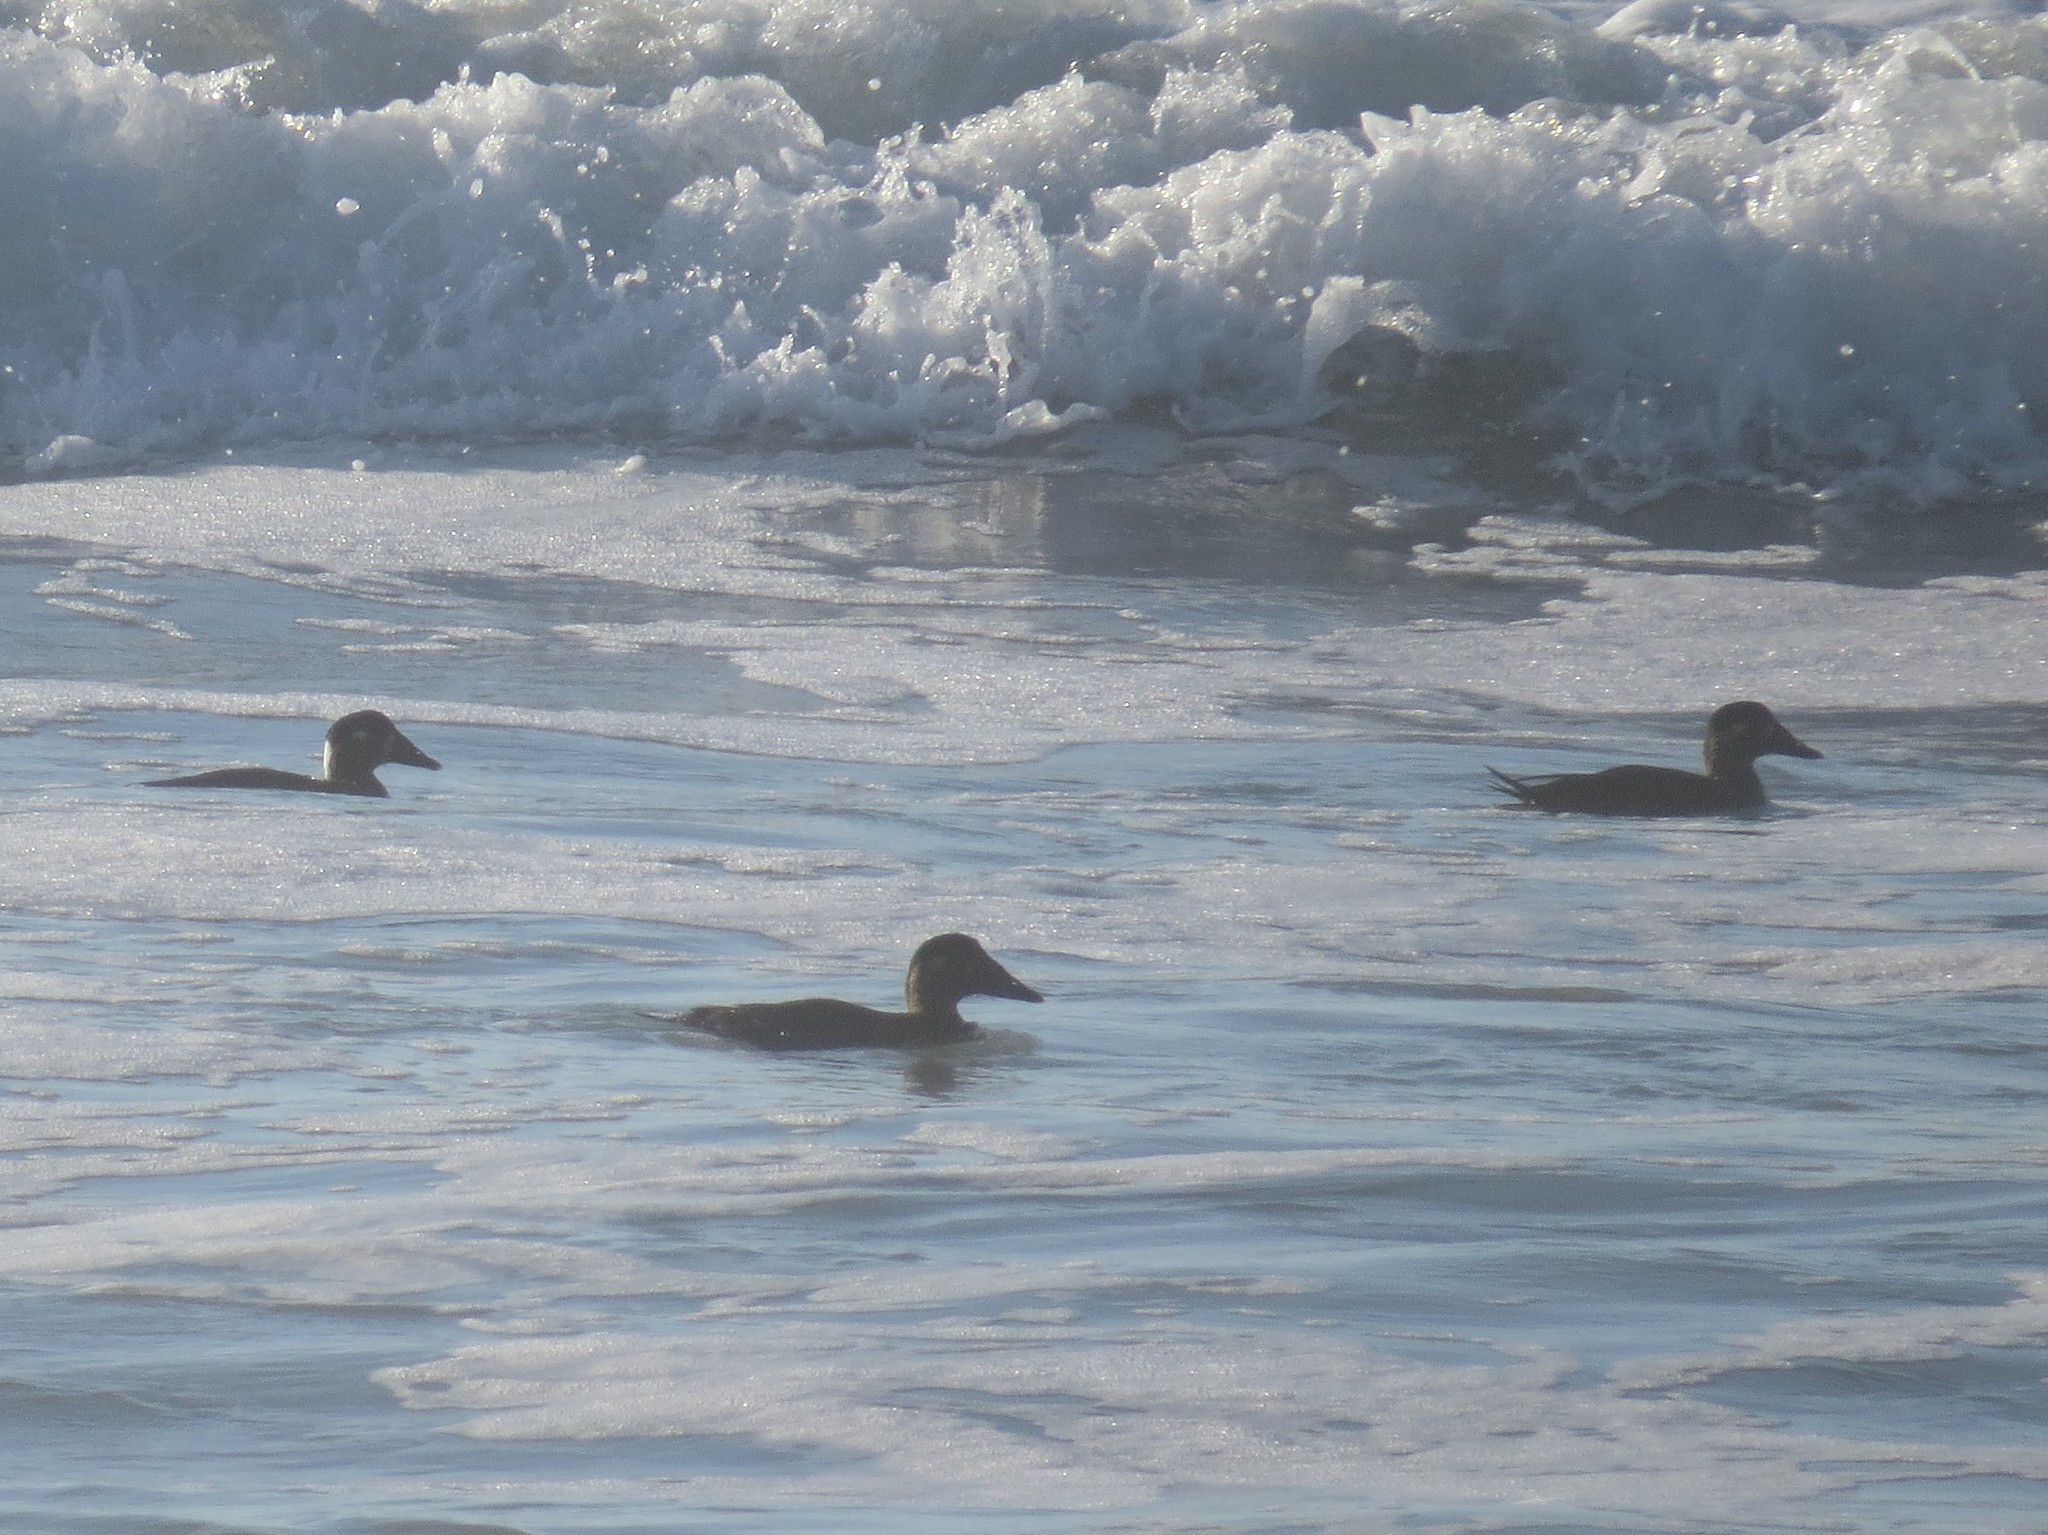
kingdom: Animalia
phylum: Chordata
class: Aves
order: Anseriformes
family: Anatidae
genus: Melanitta
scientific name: Melanitta perspicillata
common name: Surf scoter
